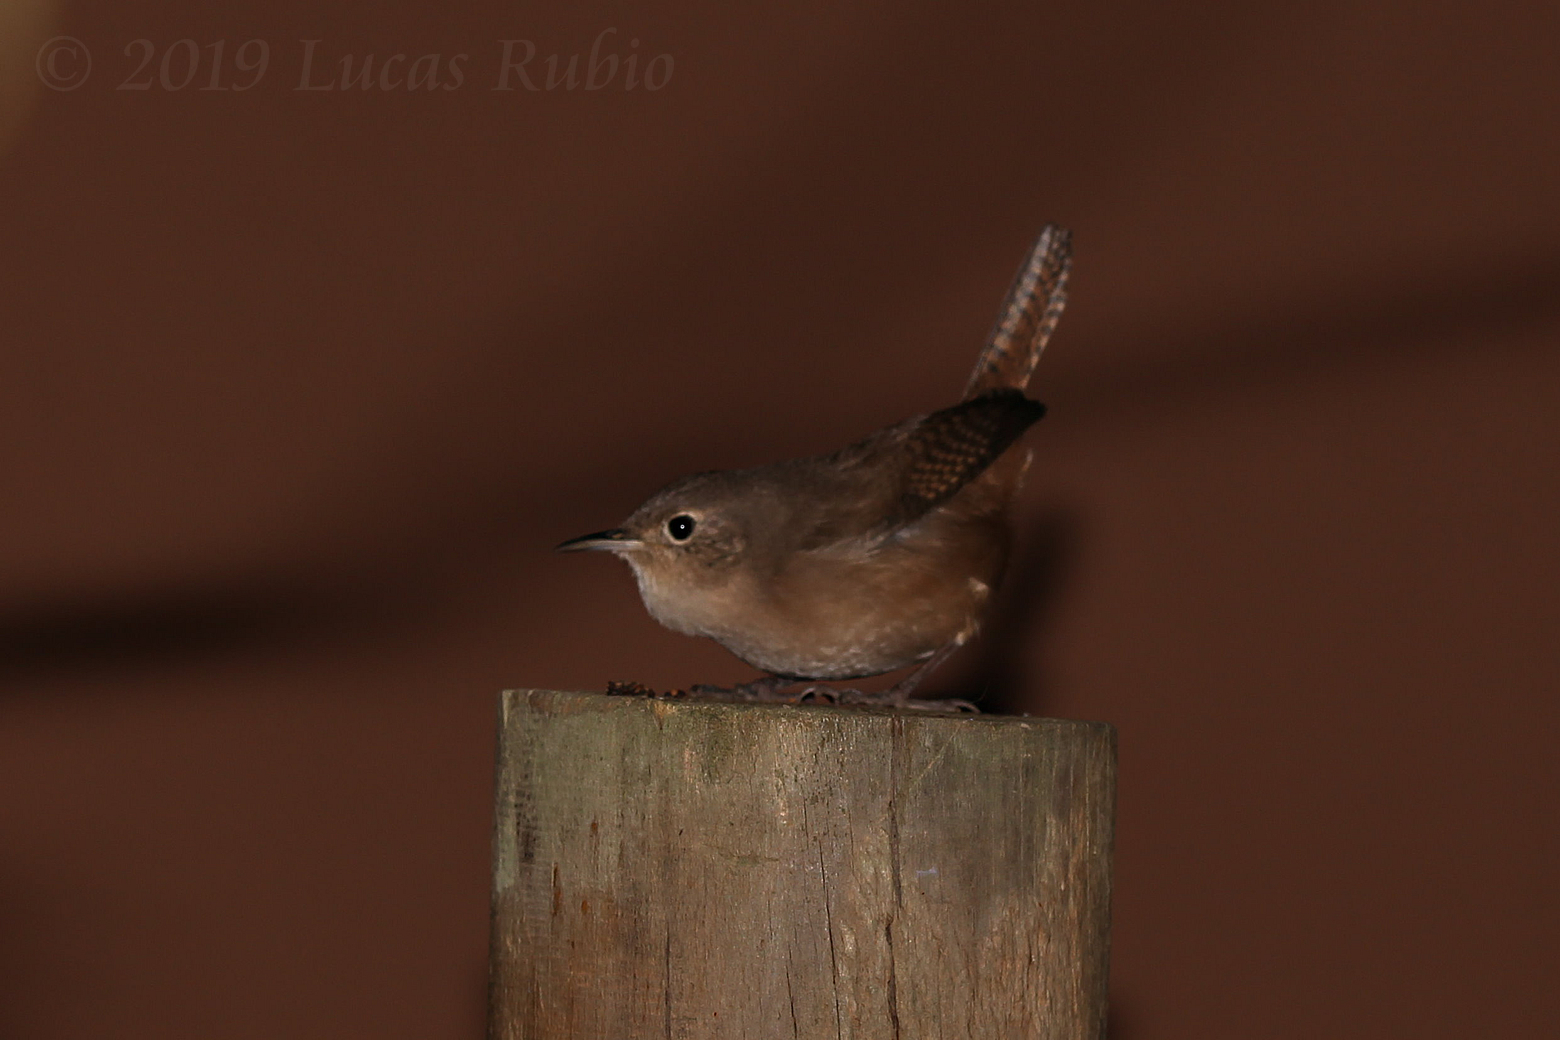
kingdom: Animalia
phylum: Chordata
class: Aves
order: Passeriformes
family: Troglodytidae
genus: Troglodytes
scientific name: Troglodytes aedon
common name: House wren
